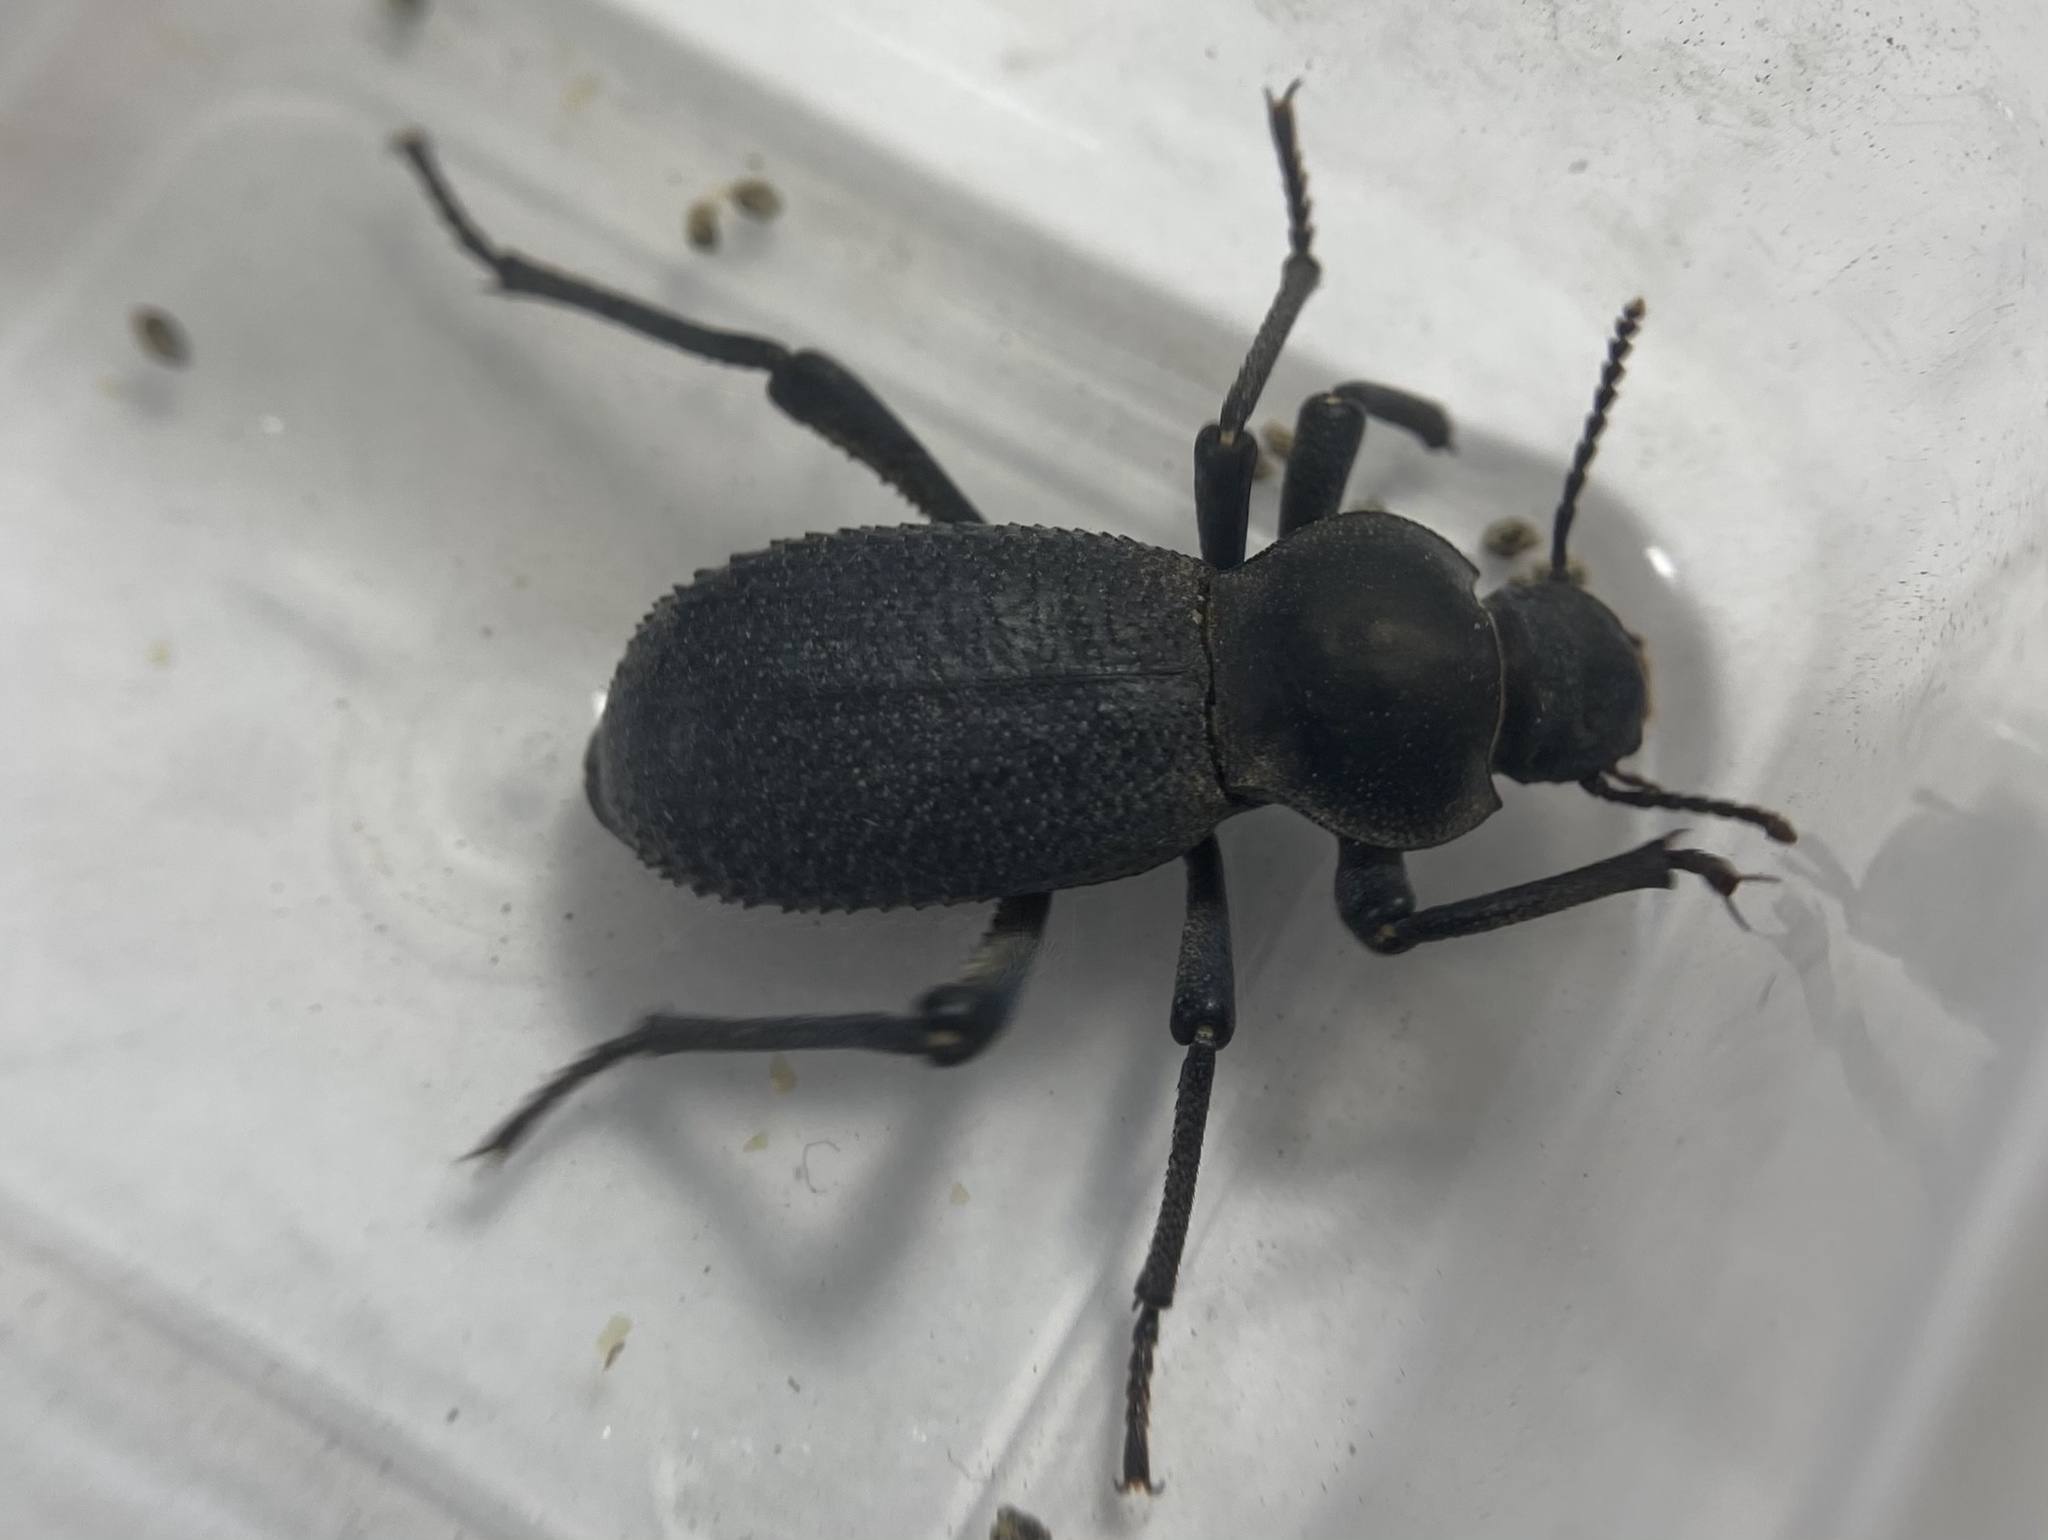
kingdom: Animalia
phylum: Arthropoda
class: Insecta
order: Coleoptera
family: Tenebrionidae
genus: Cryptoglossa
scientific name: Cryptoglossa muricata
